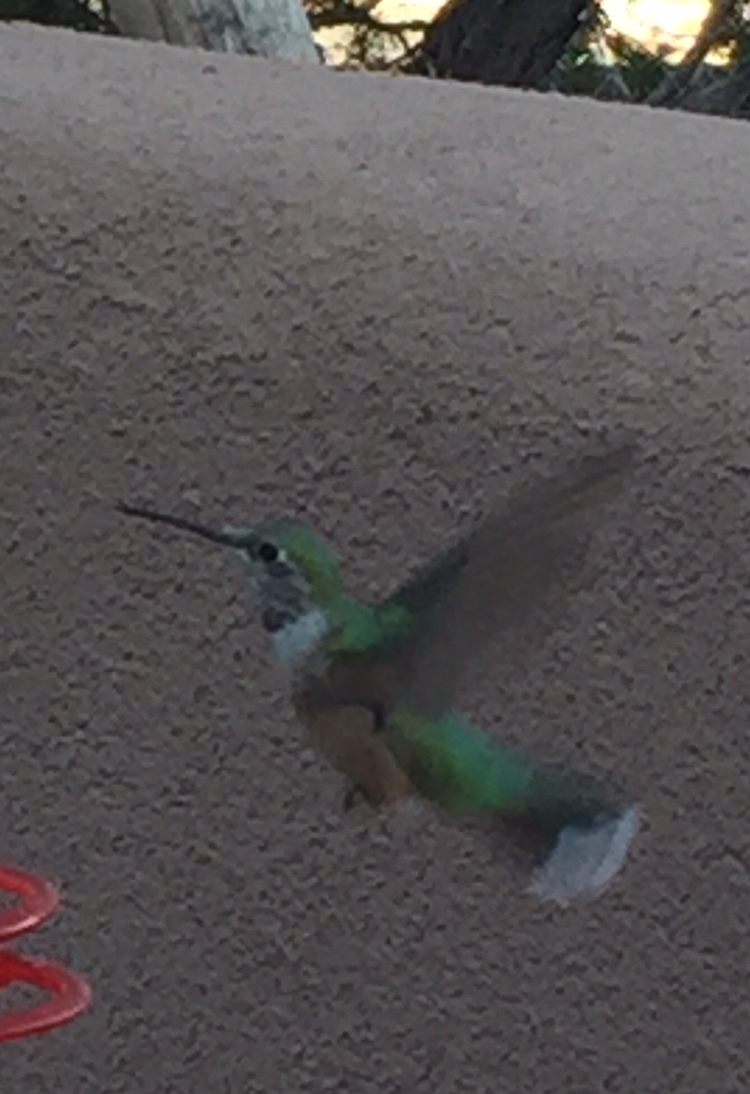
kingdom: Animalia
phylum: Chordata
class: Aves
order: Apodiformes
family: Trochilidae
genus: Selasphorus
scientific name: Selasphorus platycercus
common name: Broad-tailed hummingbird
